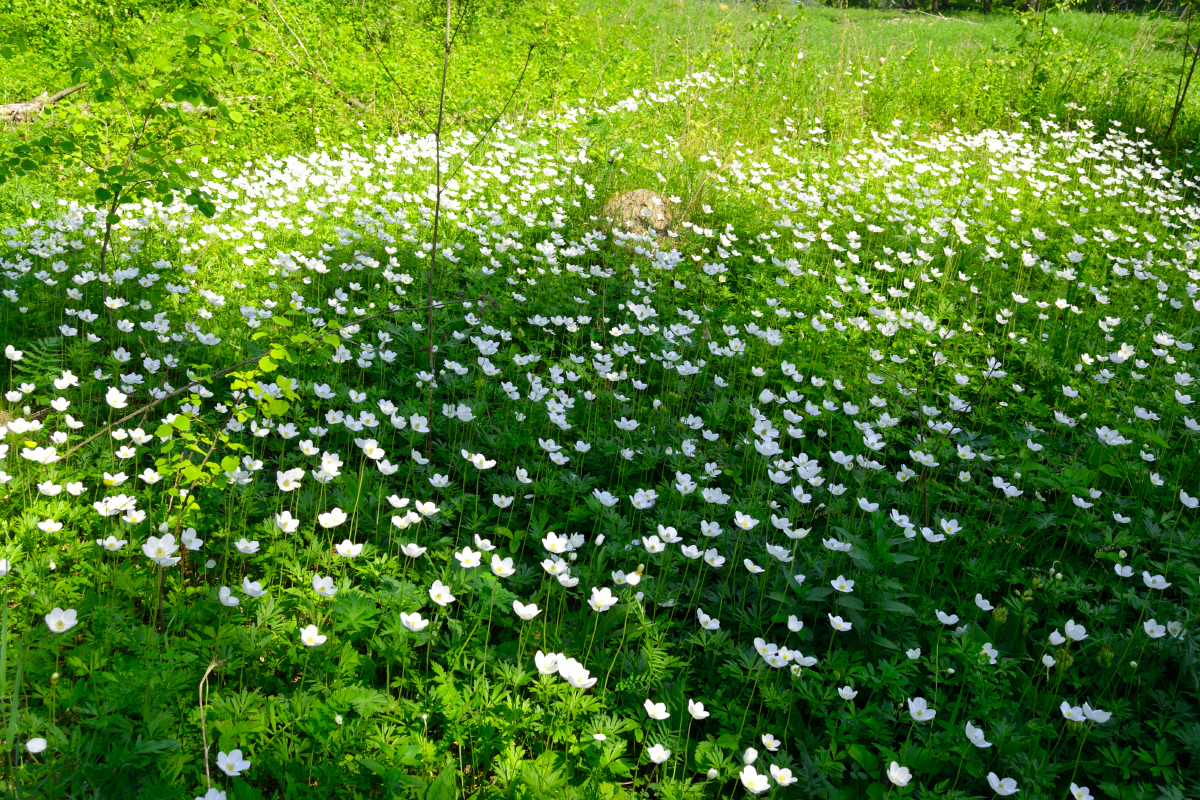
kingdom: Plantae
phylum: Tracheophyta
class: Magnoliopsida
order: Ranunculales
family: Ranunculaceae
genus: Anemone
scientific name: Anemone sylvestris
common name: Snowdrop anemone
